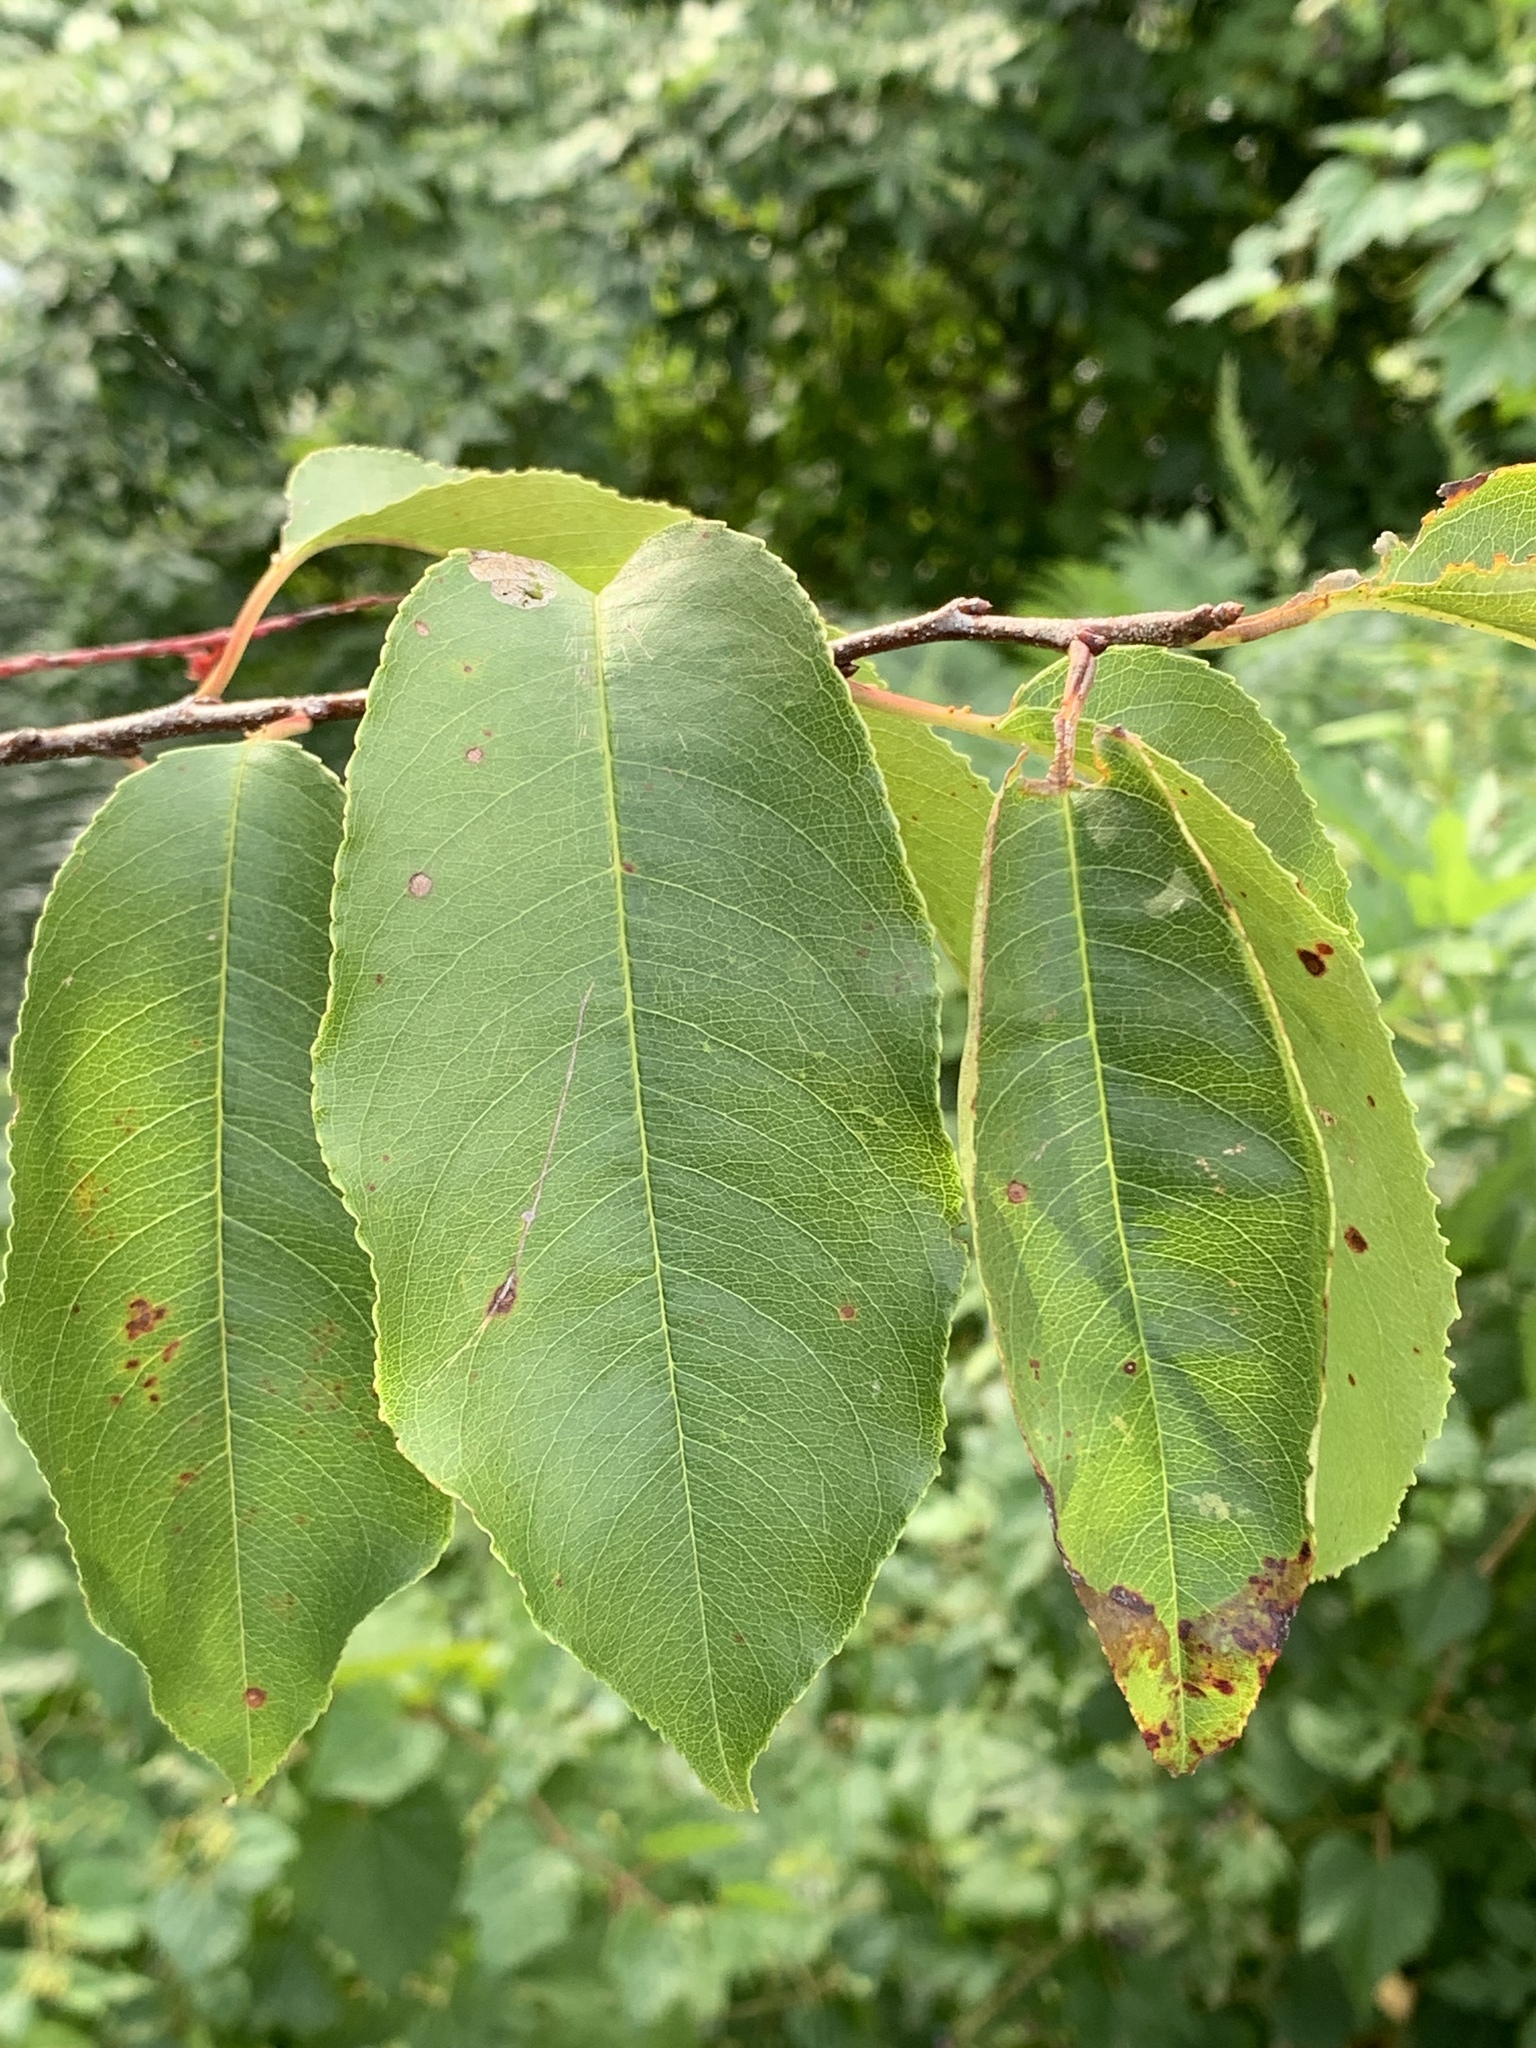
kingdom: Plantae
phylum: Tracheophyta
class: Magnoliopsida
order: Rosales
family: Rosaceae
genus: Prunus
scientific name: Prunus serotina
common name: Black cherry
